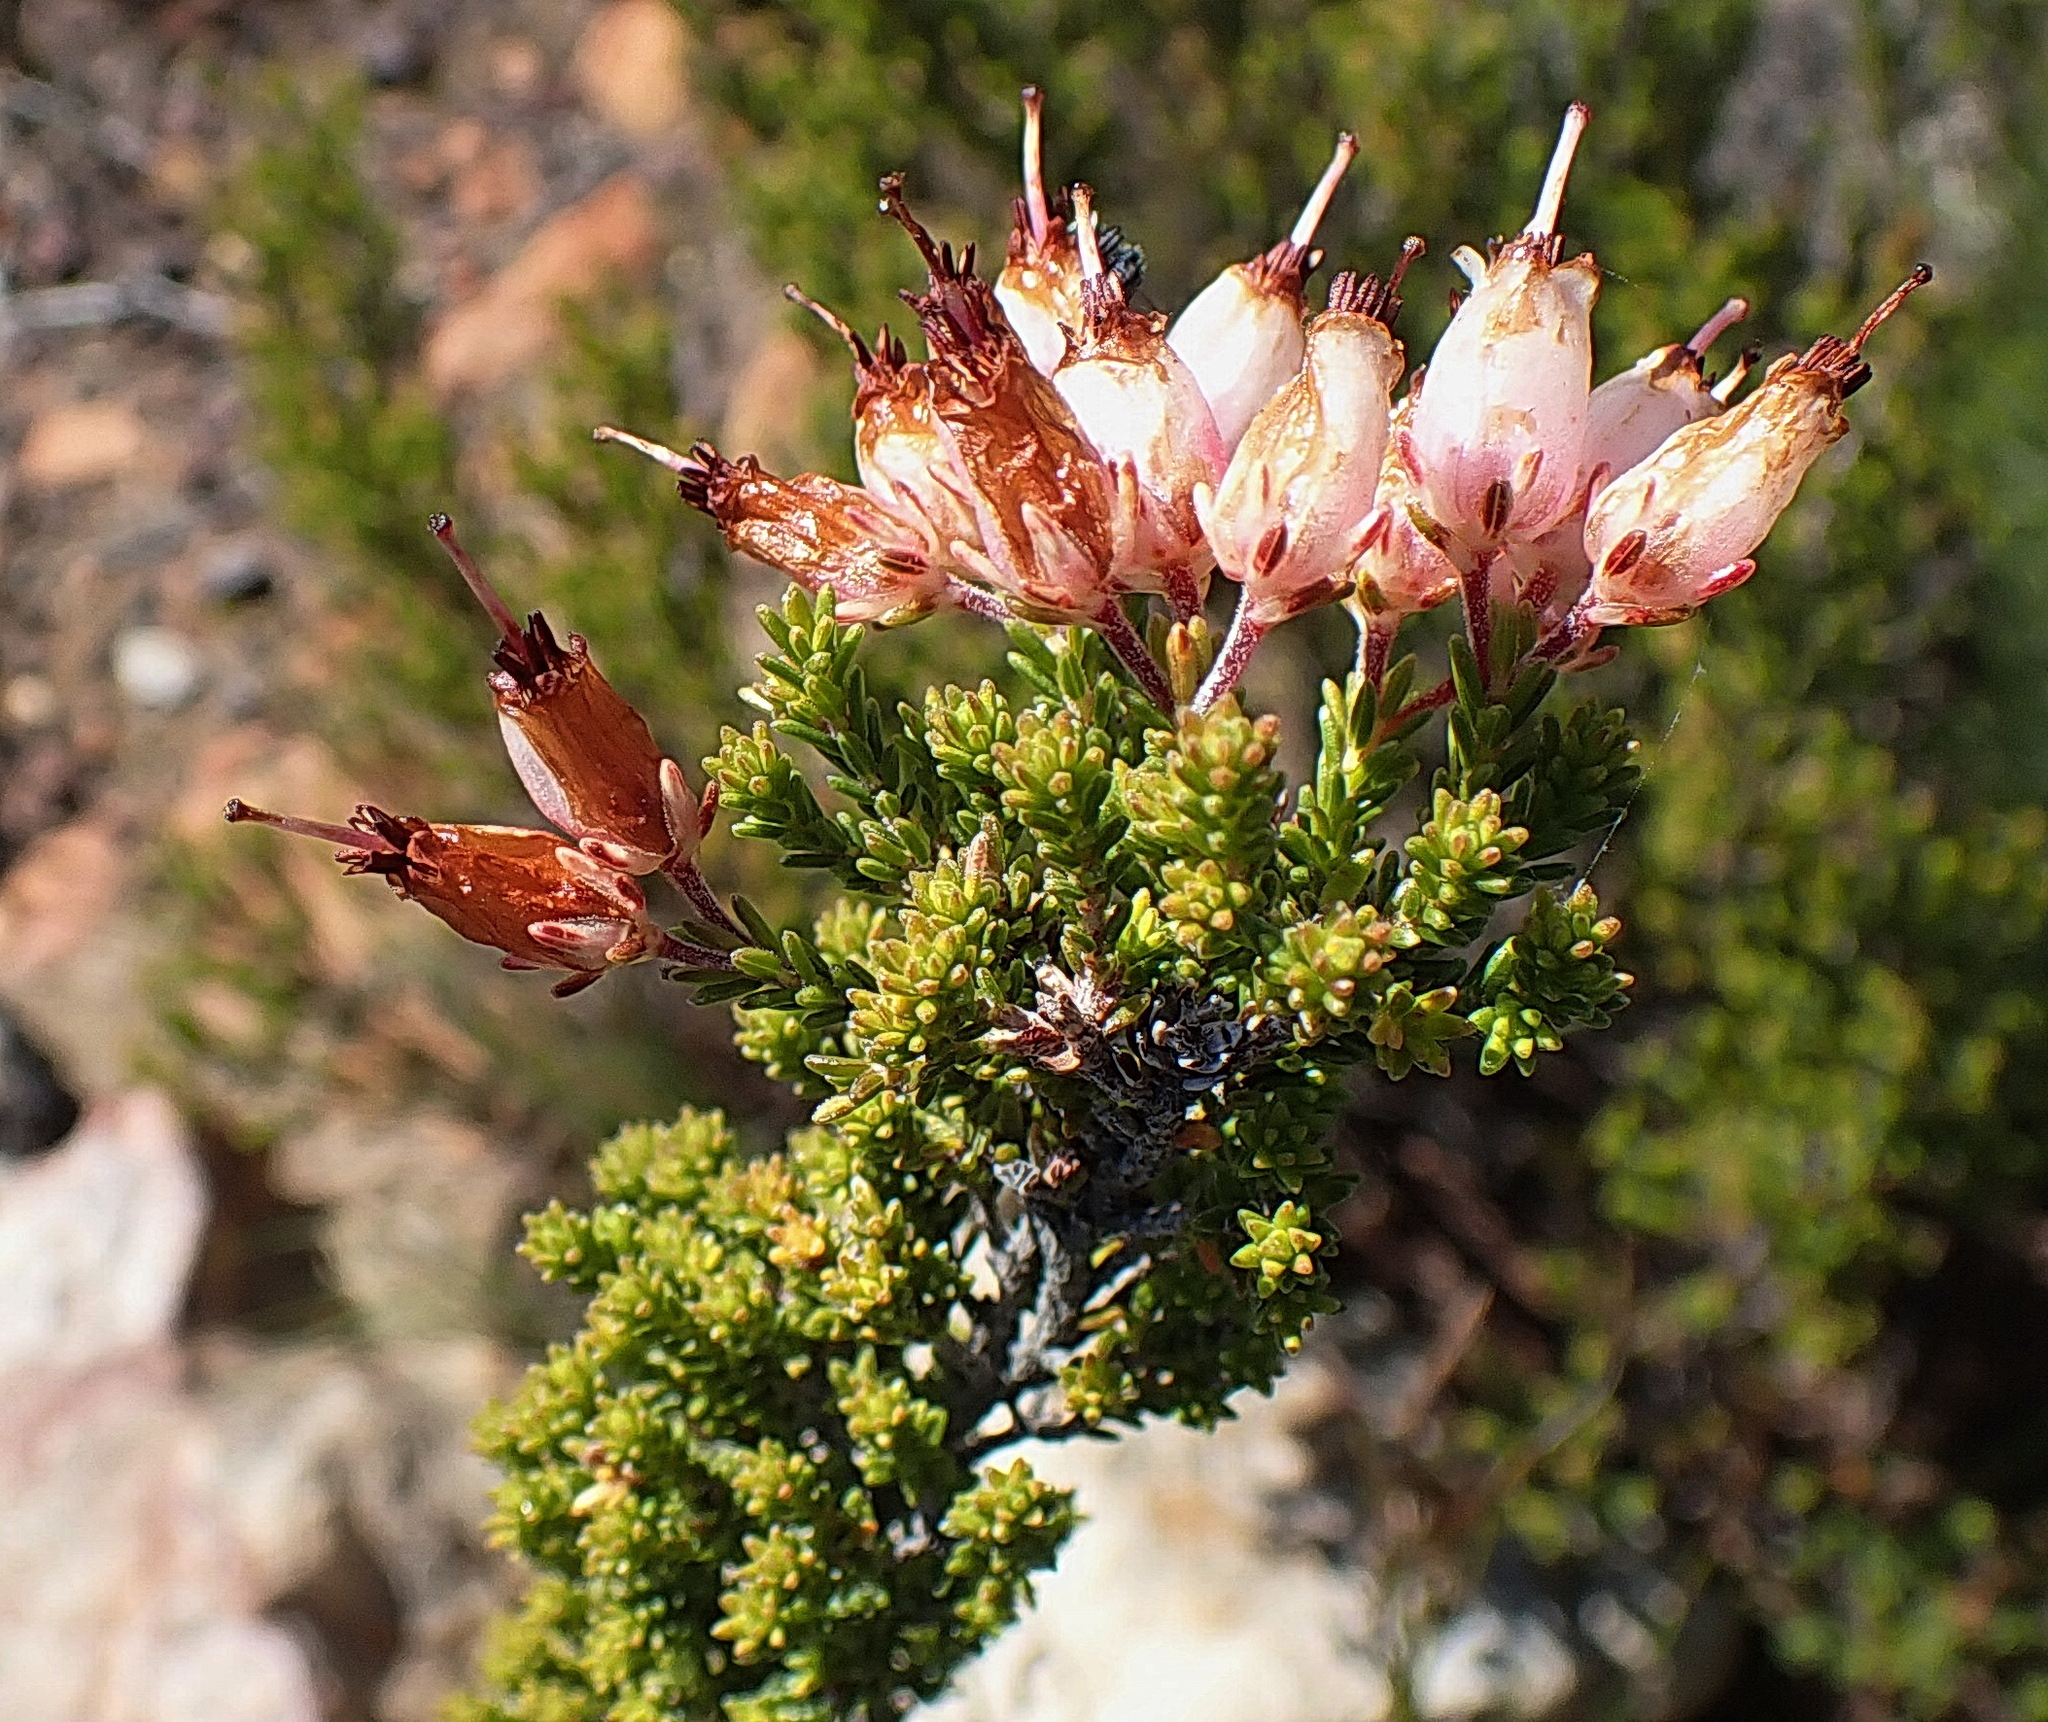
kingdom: Plantae
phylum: Tracheophyta
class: Magnoliopsida
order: Ericales
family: Ericaceae
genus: Erica
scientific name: Erica recta
